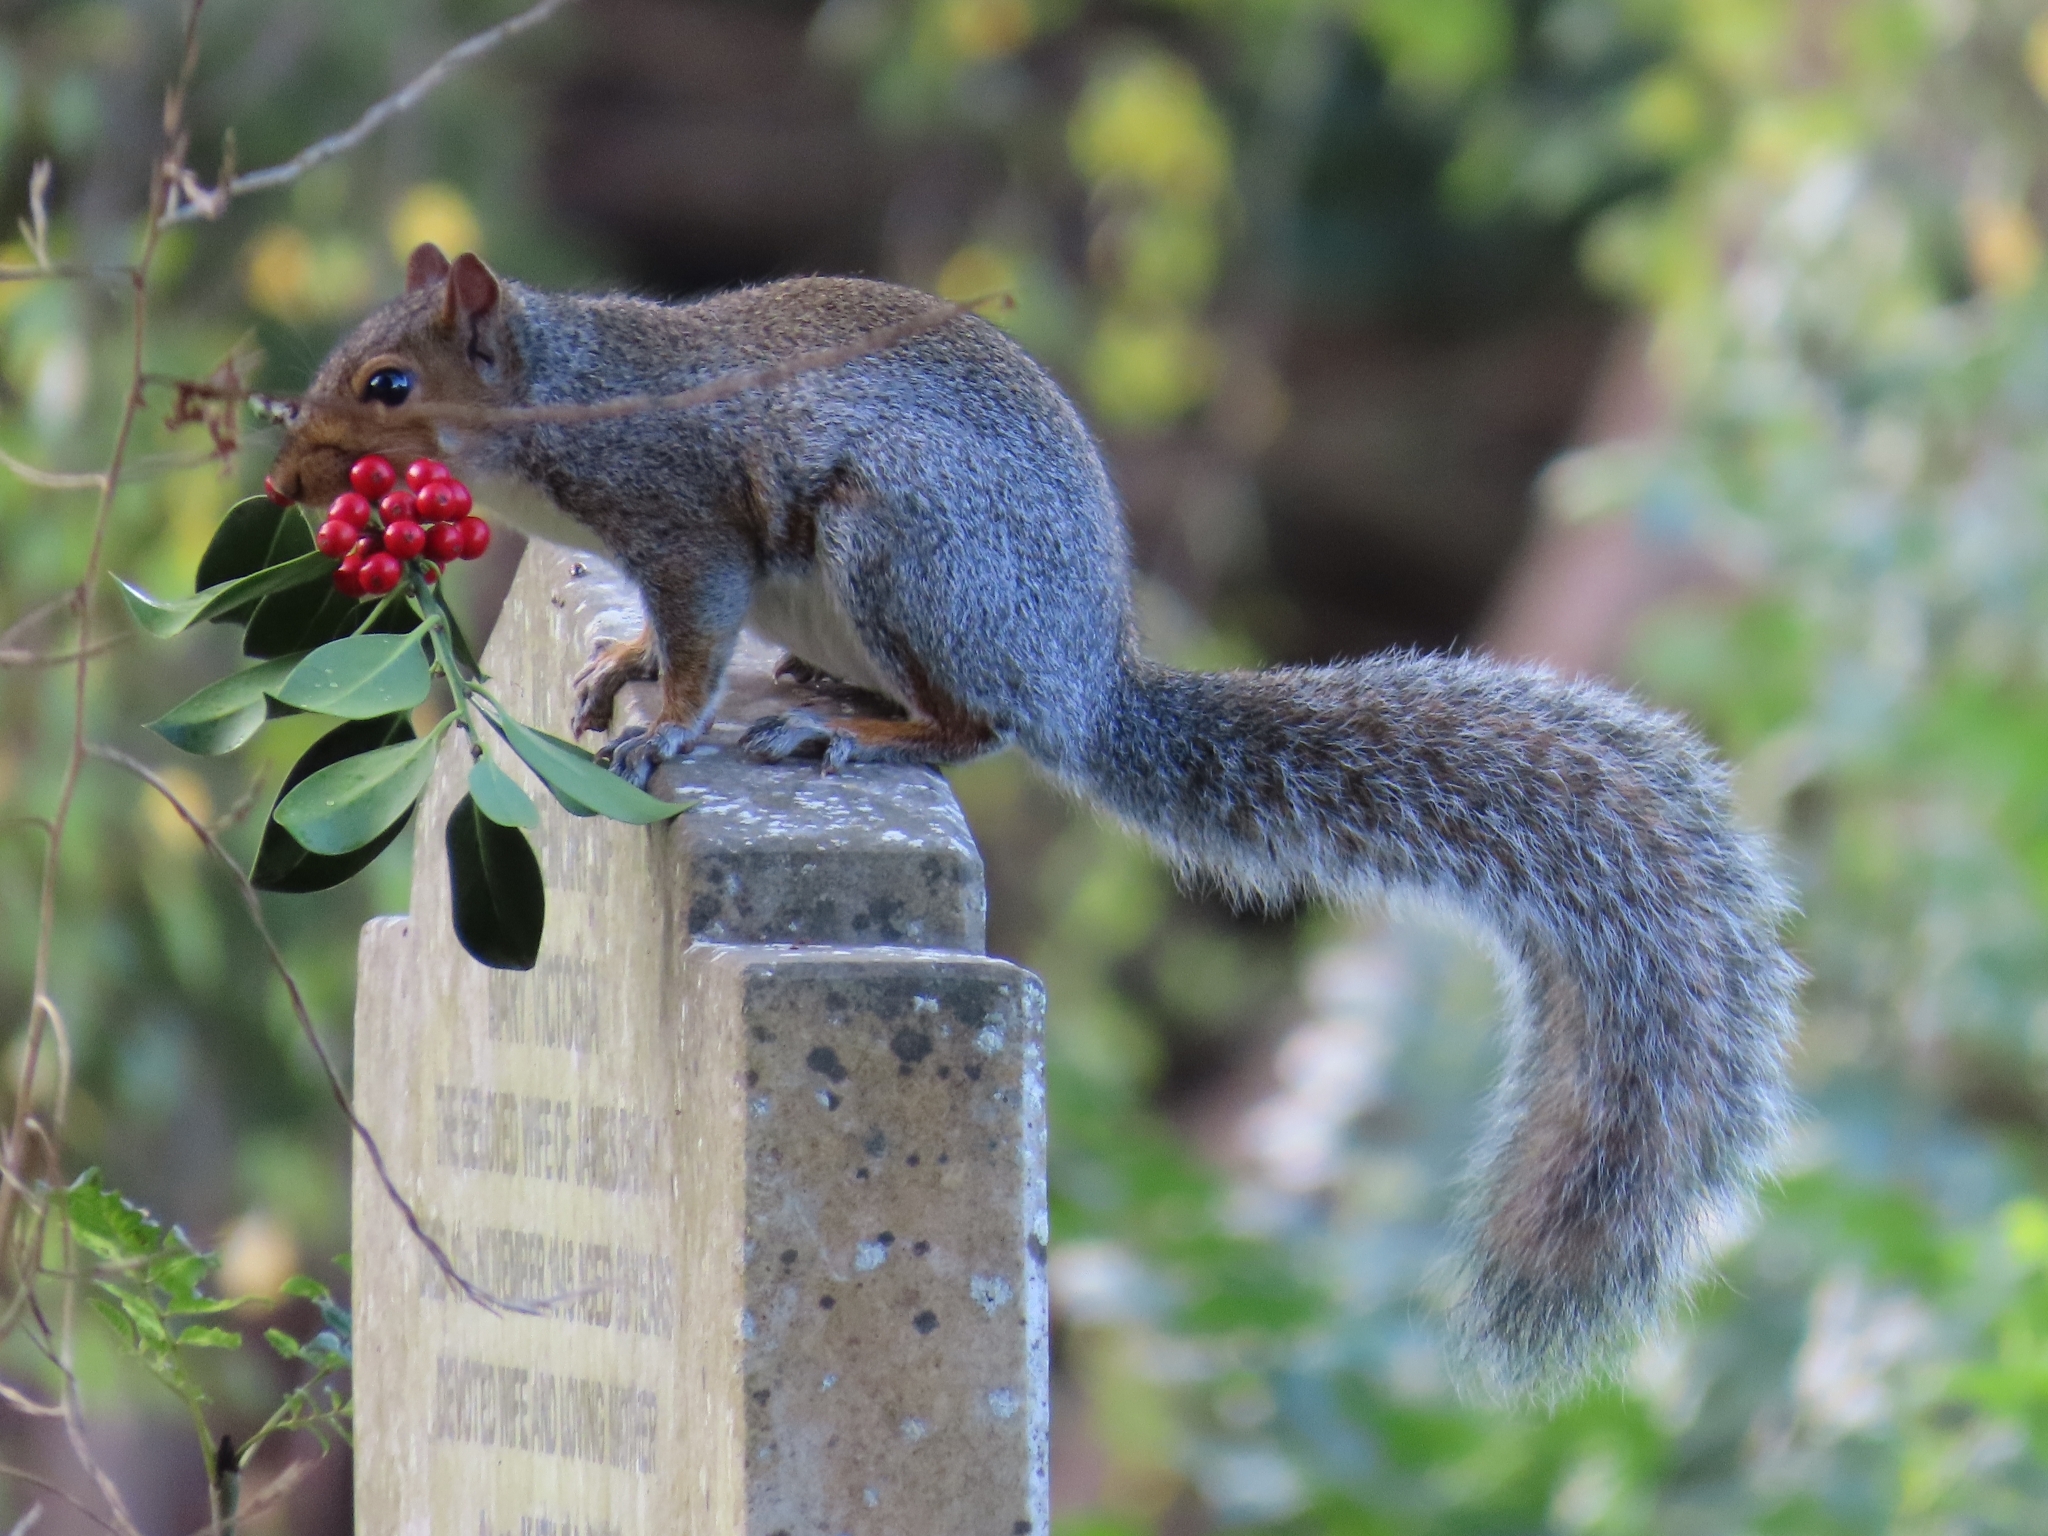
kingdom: Animalia
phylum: Chordata
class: Mammalia
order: Rodentia
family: Sciuridae
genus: Sciurus
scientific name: Sciurus carolinensis
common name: Eastern gray squirrel
